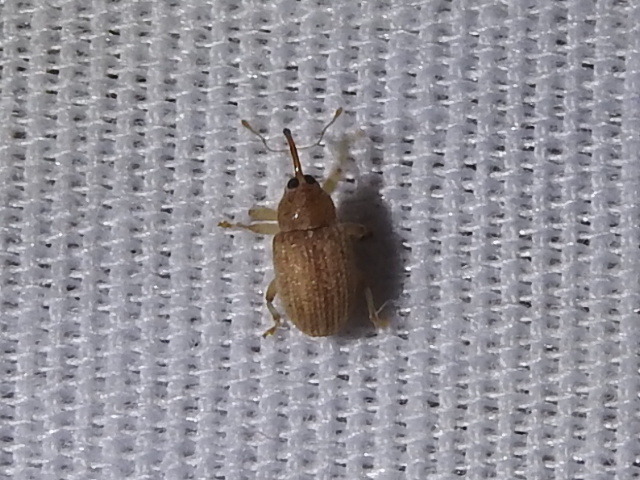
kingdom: Animalia
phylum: Arthropoda
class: Insecta
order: Coleoptera
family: Curculionidae
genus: Lignyodes
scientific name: Lignyodes helvolus
